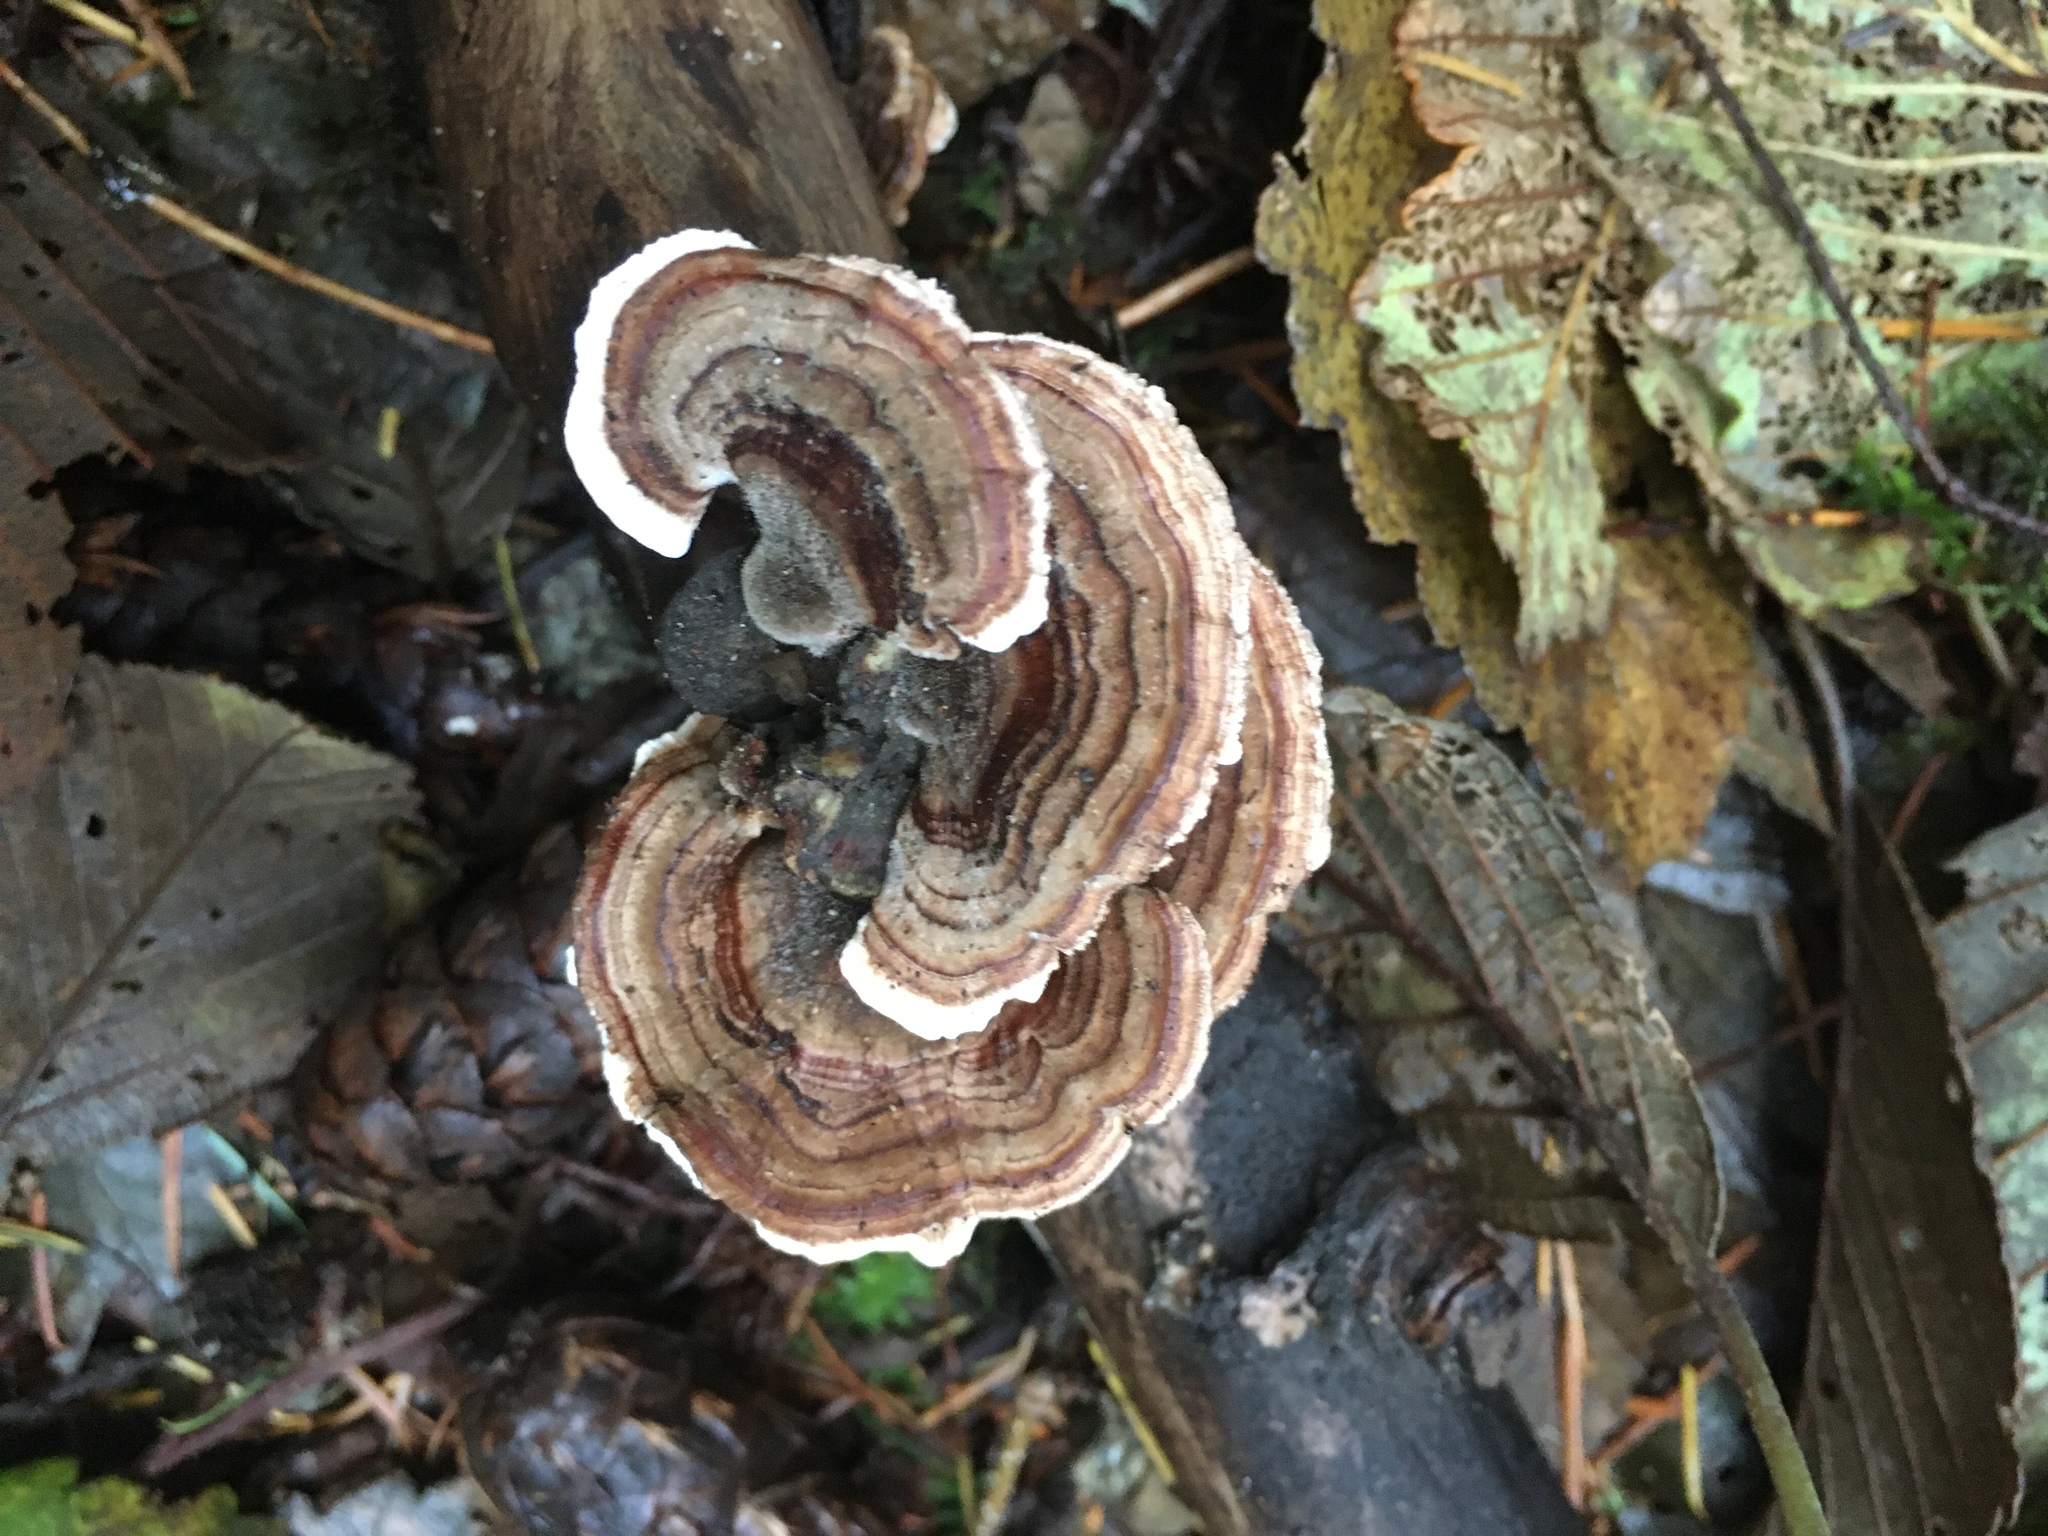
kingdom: Fungi
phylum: Basidiomycota
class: Agaricomycetes
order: Polyporales
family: Polyporaceae
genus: Trametes
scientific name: Trametes versicolor
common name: Turkeytail
